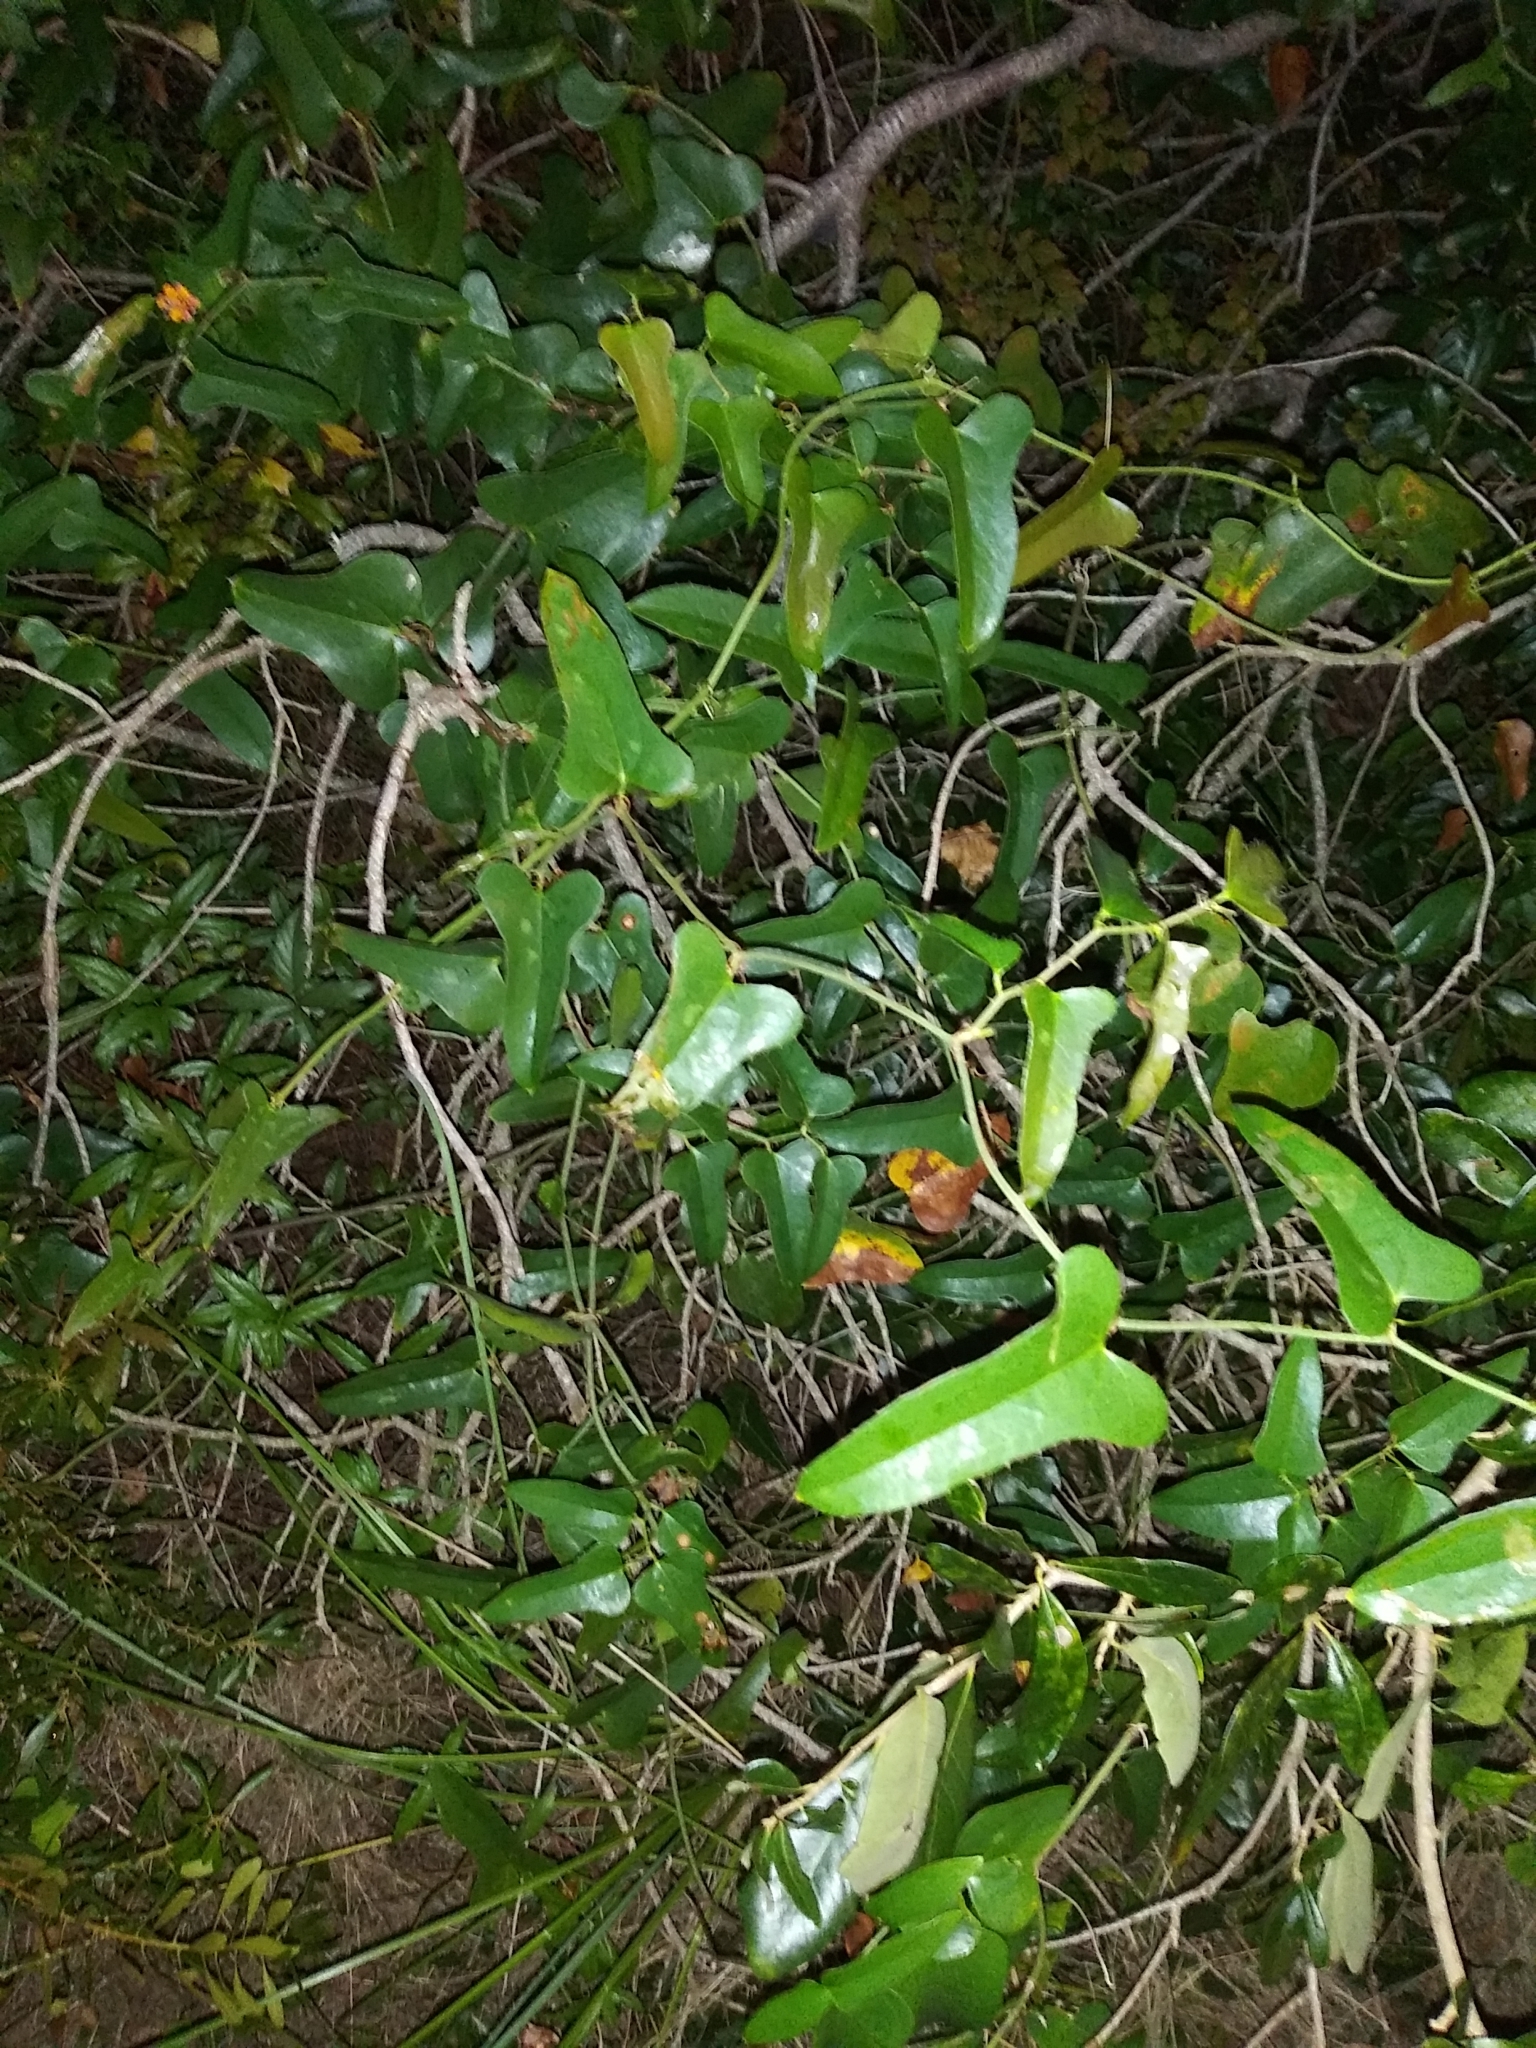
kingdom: Plantae
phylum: Tracheophyta
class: Liliopsida
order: Liliales
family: Smilacaceae
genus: Smilax
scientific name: Smilax bona-nox
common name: Catbrier
